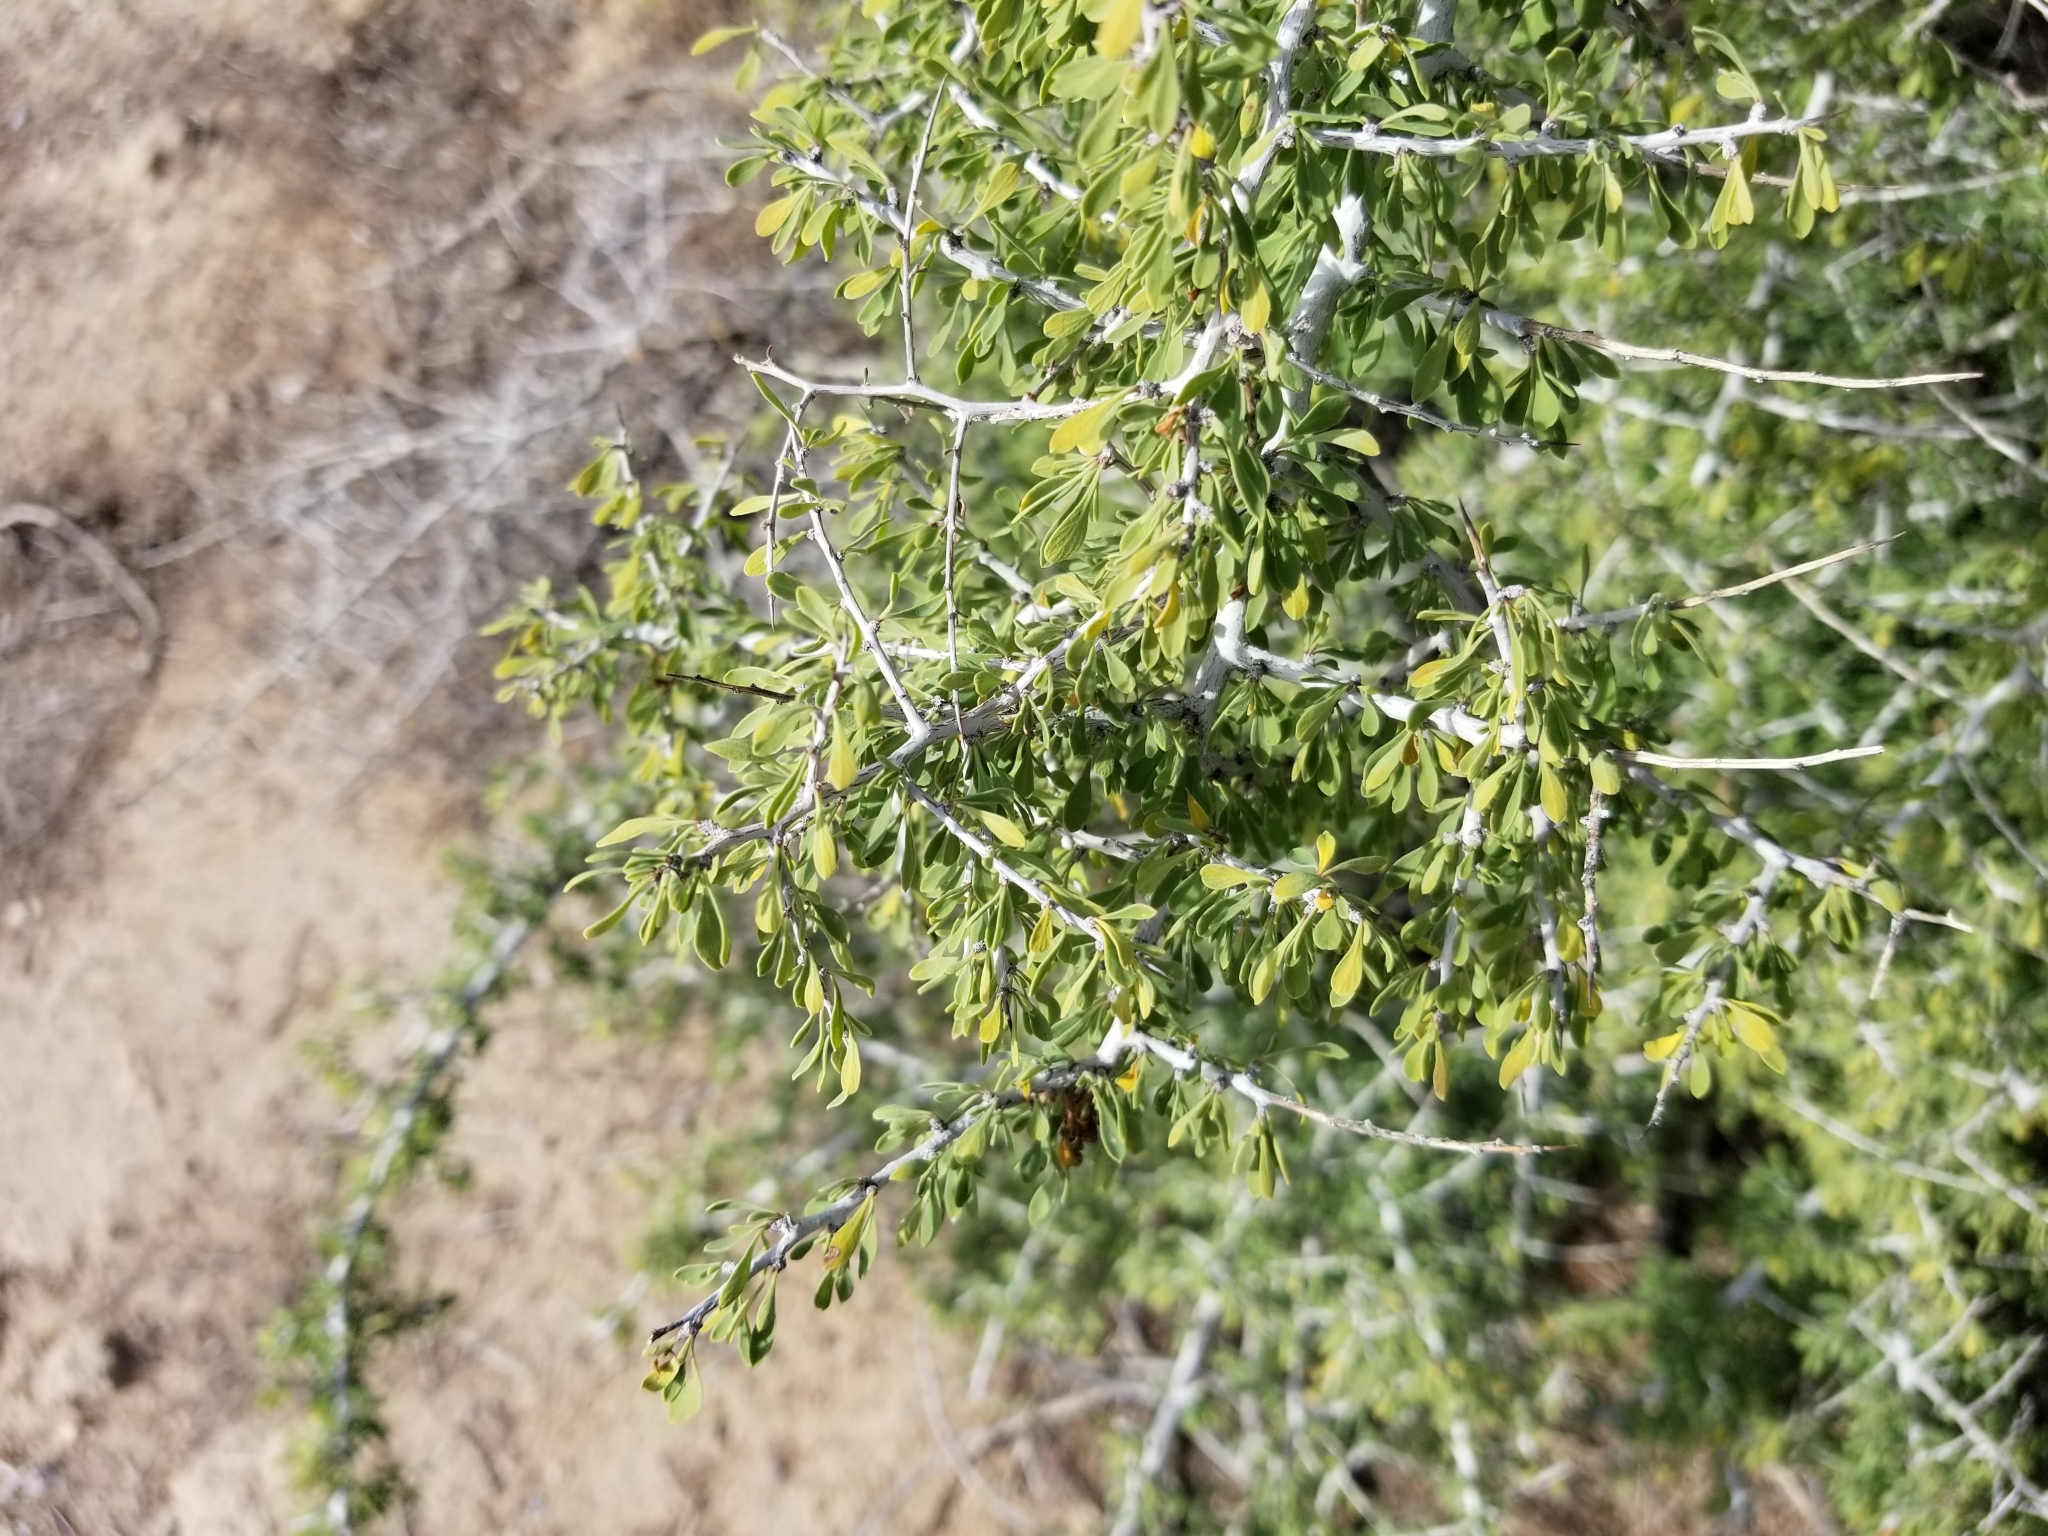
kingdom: Plantae
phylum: Tracheophyta
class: Magnoliopsida
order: Rosales
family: Rhamnaceae
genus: Condalia
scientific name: Condalia globosa
